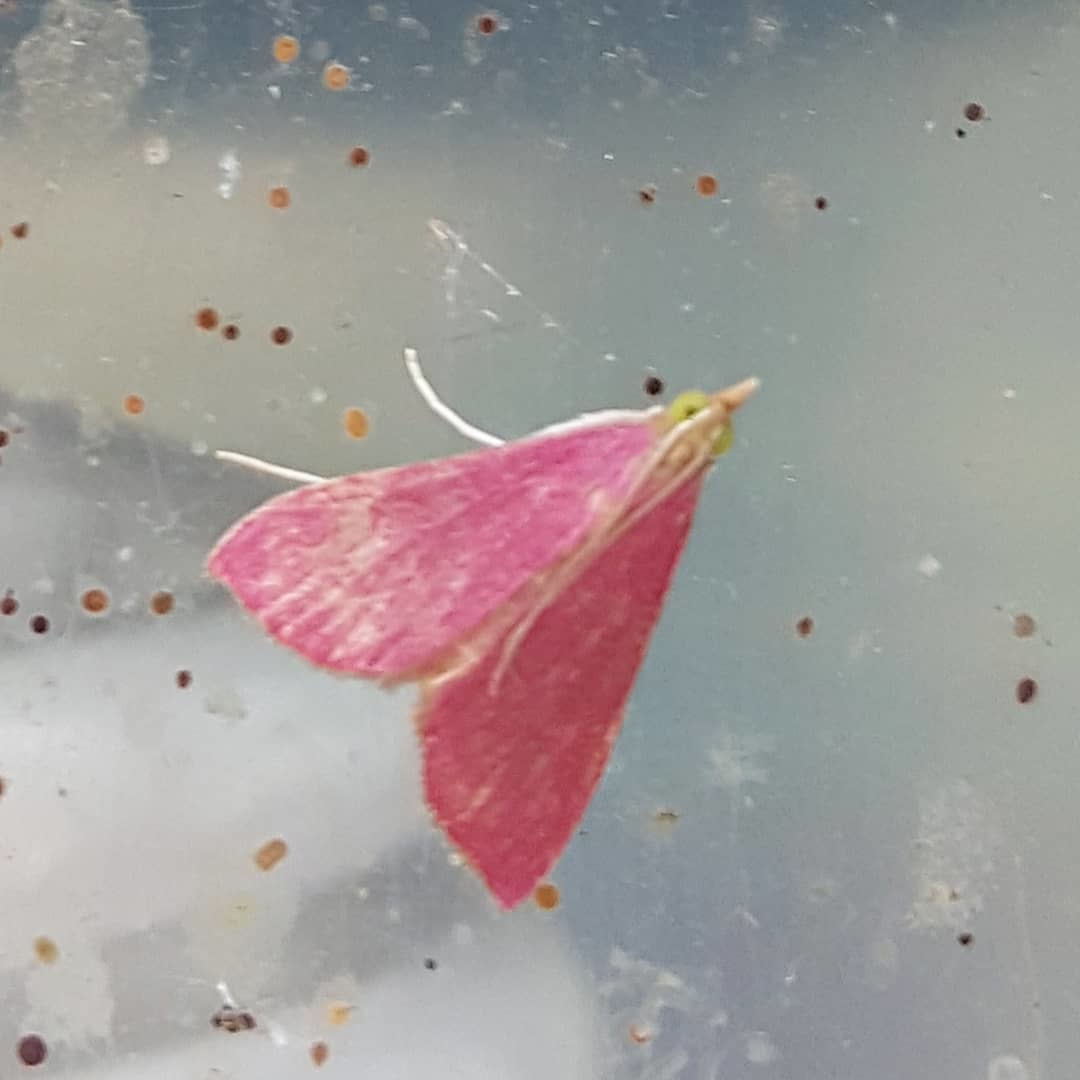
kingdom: Animalia
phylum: Arthropoda
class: Insecta
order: Lepidoptera
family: Crambidae
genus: Pyrausta
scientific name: Pyrausta inornatalis
